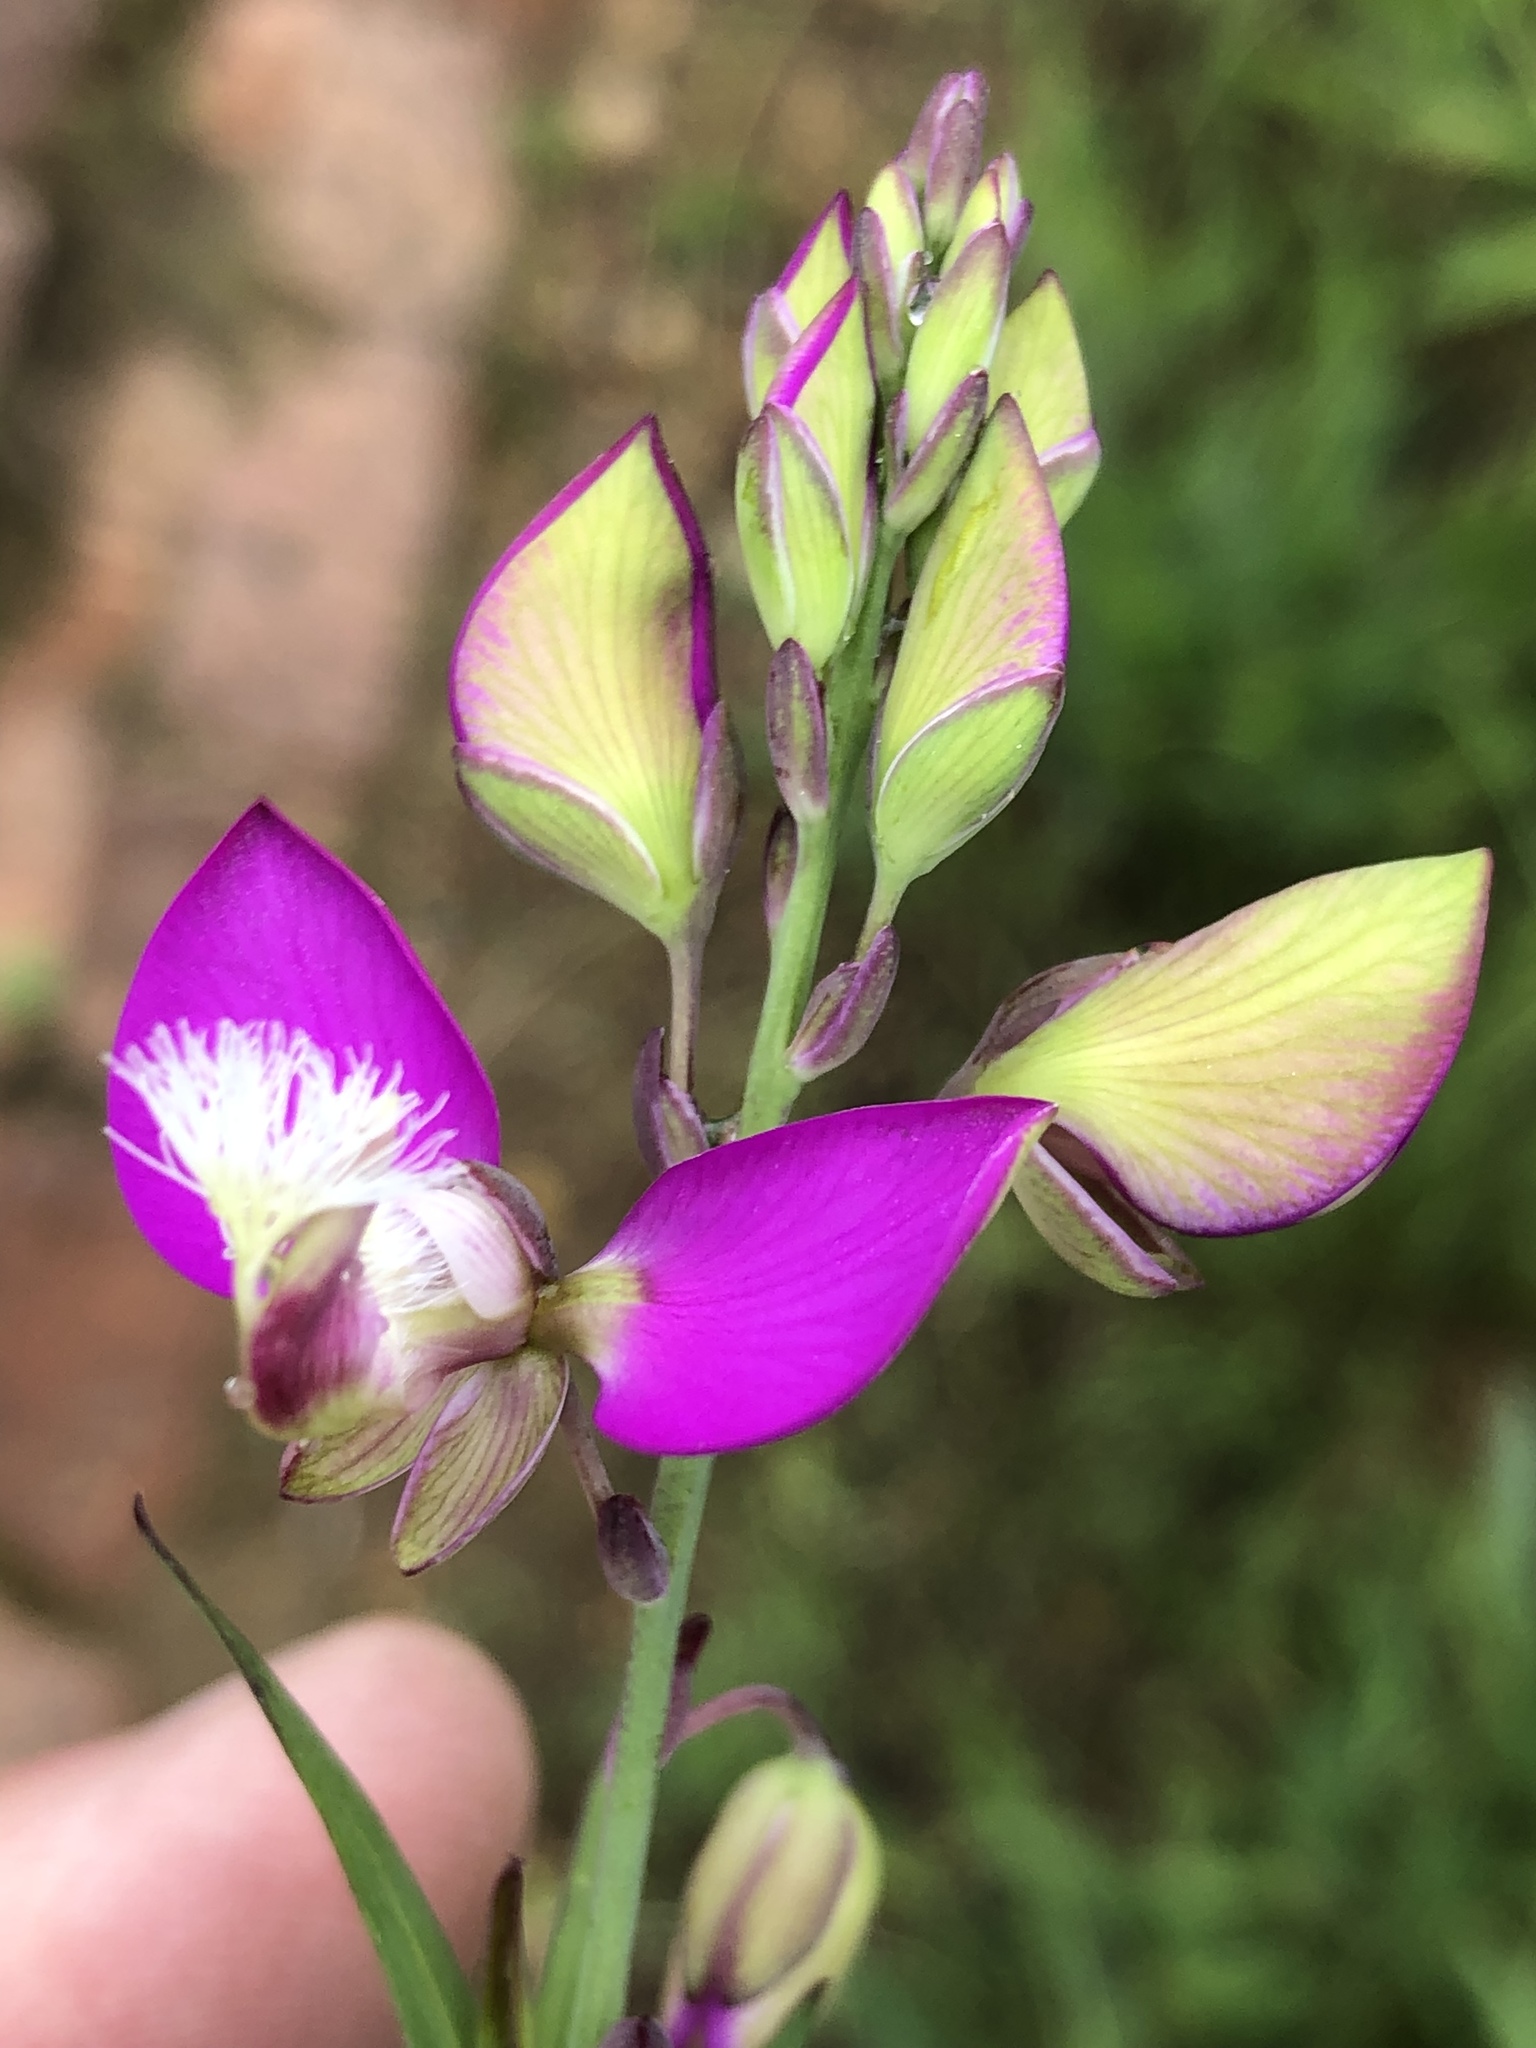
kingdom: Plantae
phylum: Tracheophyta
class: Magnoliopsida
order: Fabales
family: Polygalaceae
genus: Polygala
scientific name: Polygala bracteolata
